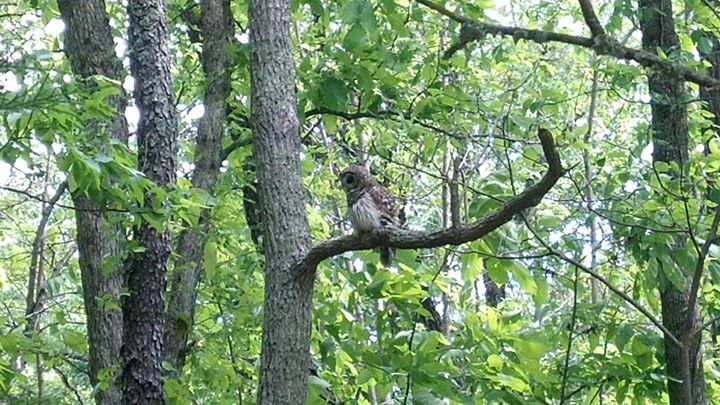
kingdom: Animalia
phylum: Chordata
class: Aves
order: Strigiformes
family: Strigidae
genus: Strix
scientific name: Strix varia
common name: Barred owl
